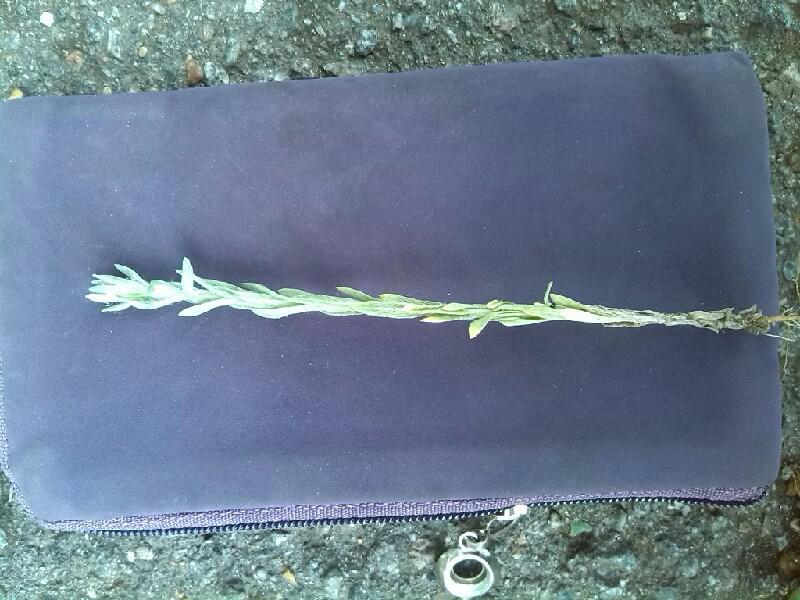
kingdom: Plantae
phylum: Tracheophyta
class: Magnoliopsida
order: Asterales
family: Asteraceae
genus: Filago
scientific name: Filago arvensis
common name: Field cudweed
